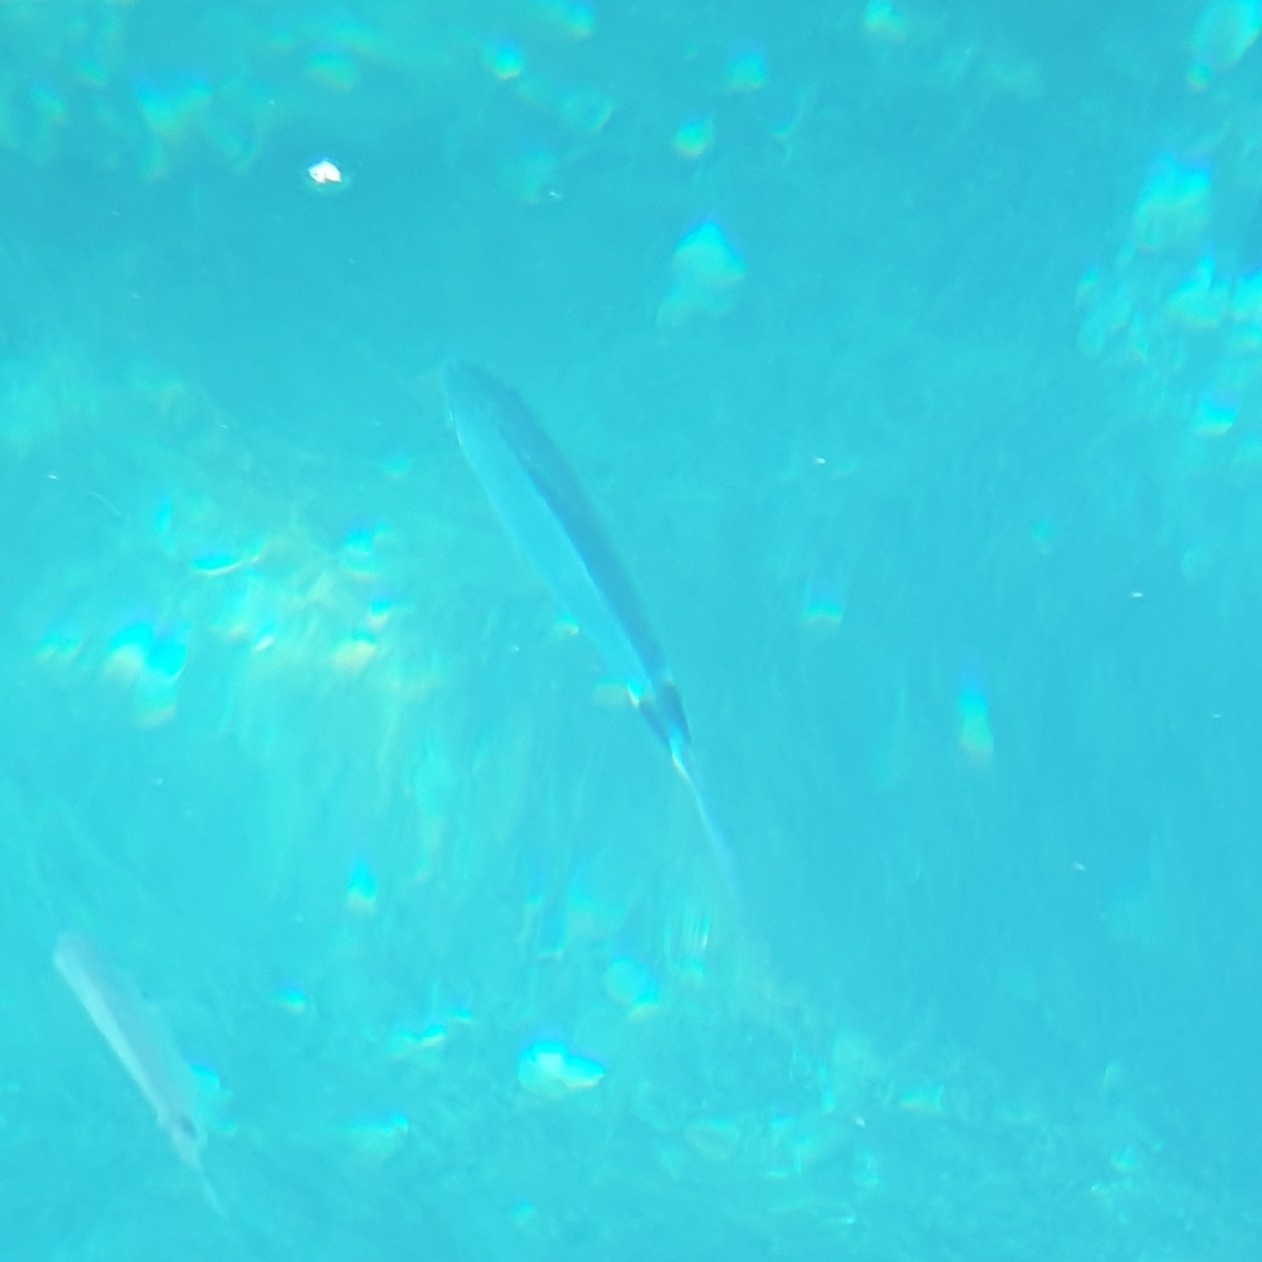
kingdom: Animalia
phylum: Chordata
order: Perciformes
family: Sparidae
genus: Oblada
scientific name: Oblada melanura
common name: Saddled seabream
